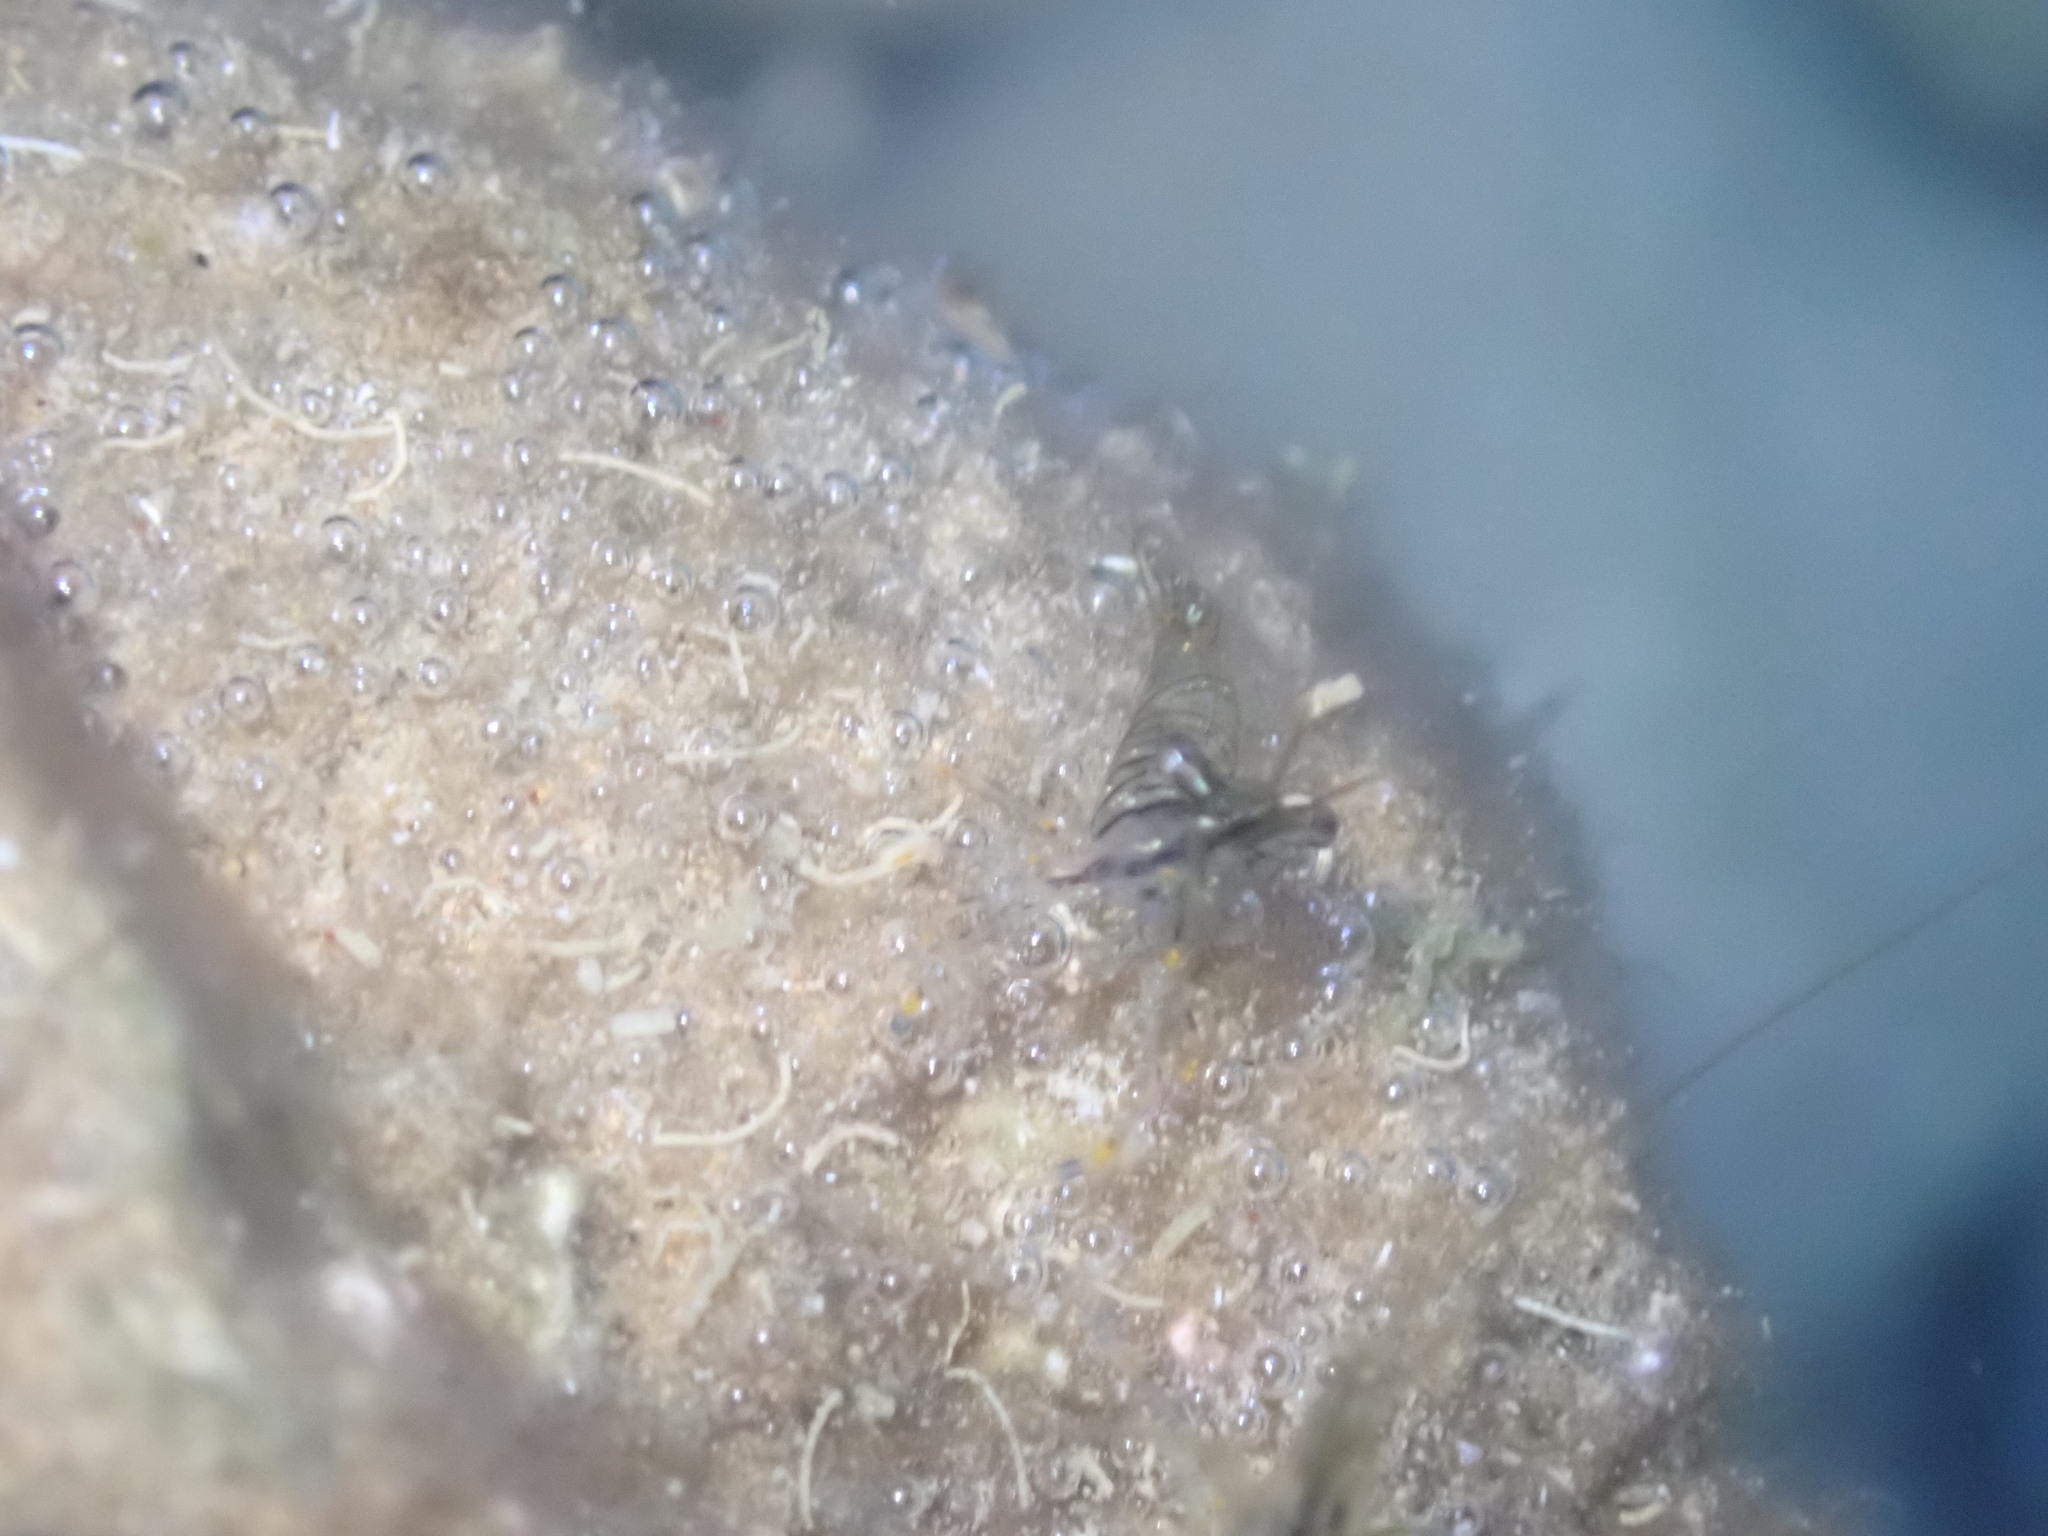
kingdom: Animalia
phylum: Arthropoda
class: Malacostraca
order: Decapoda
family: Palaemonidae
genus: Palaemon
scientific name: Palaemon elegans
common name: Grass prawm
